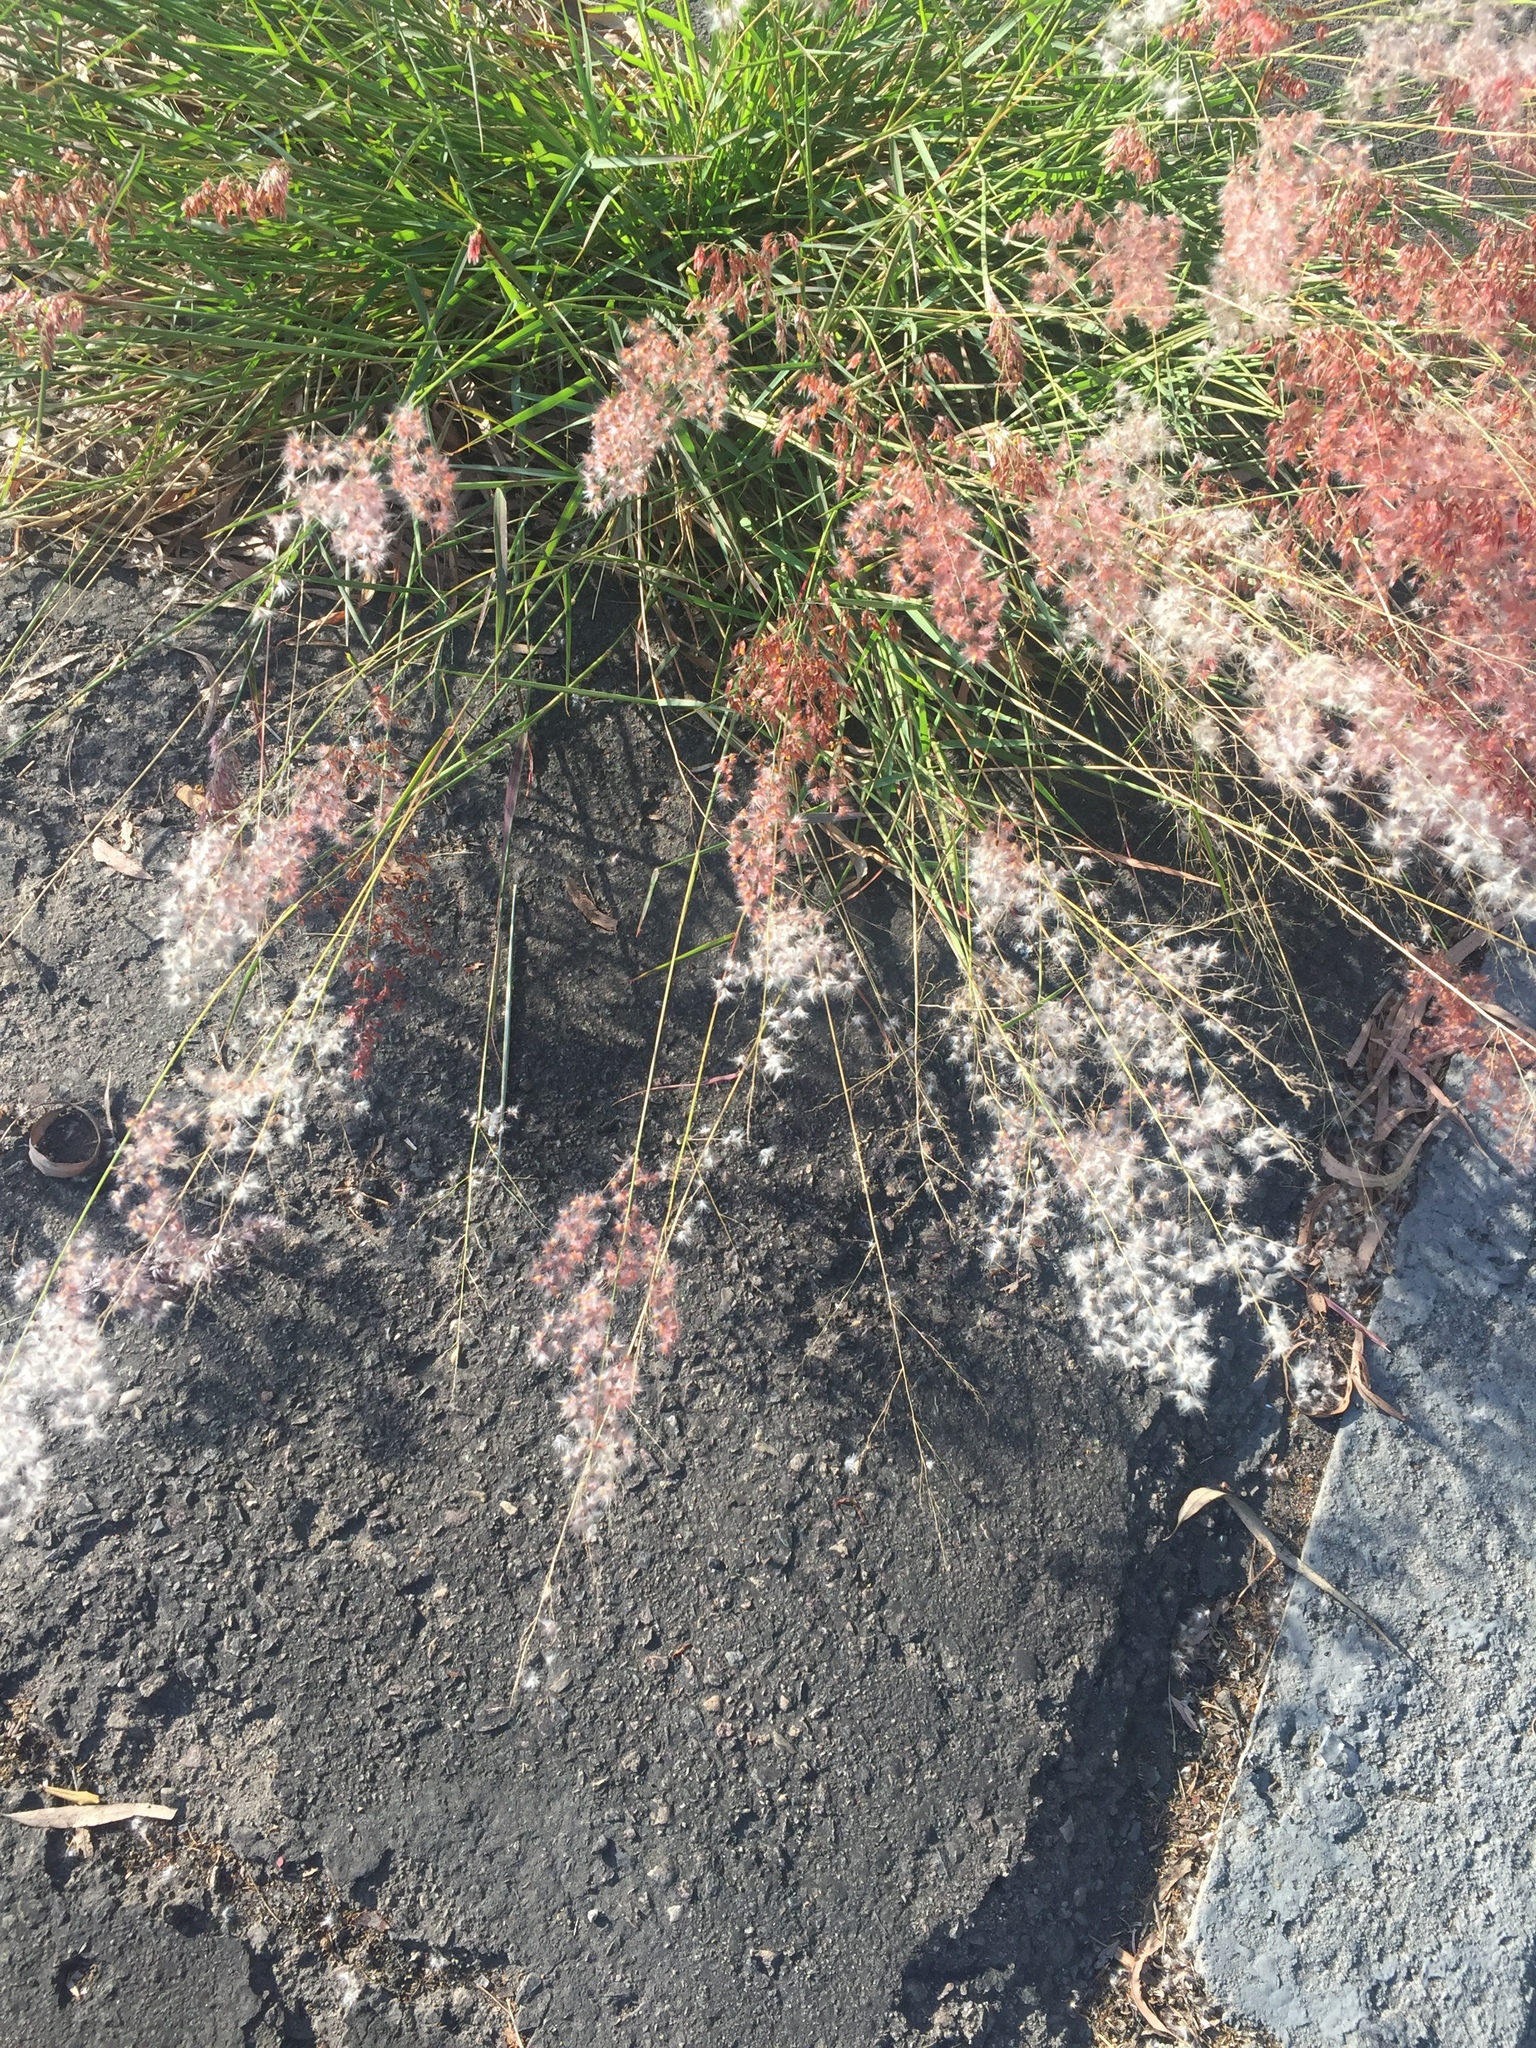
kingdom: Plantae
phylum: Tracheophyta
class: Liliopsida
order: Poales
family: Poaceae
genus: Melinis
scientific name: Melinis repens
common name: Rose natal grass
